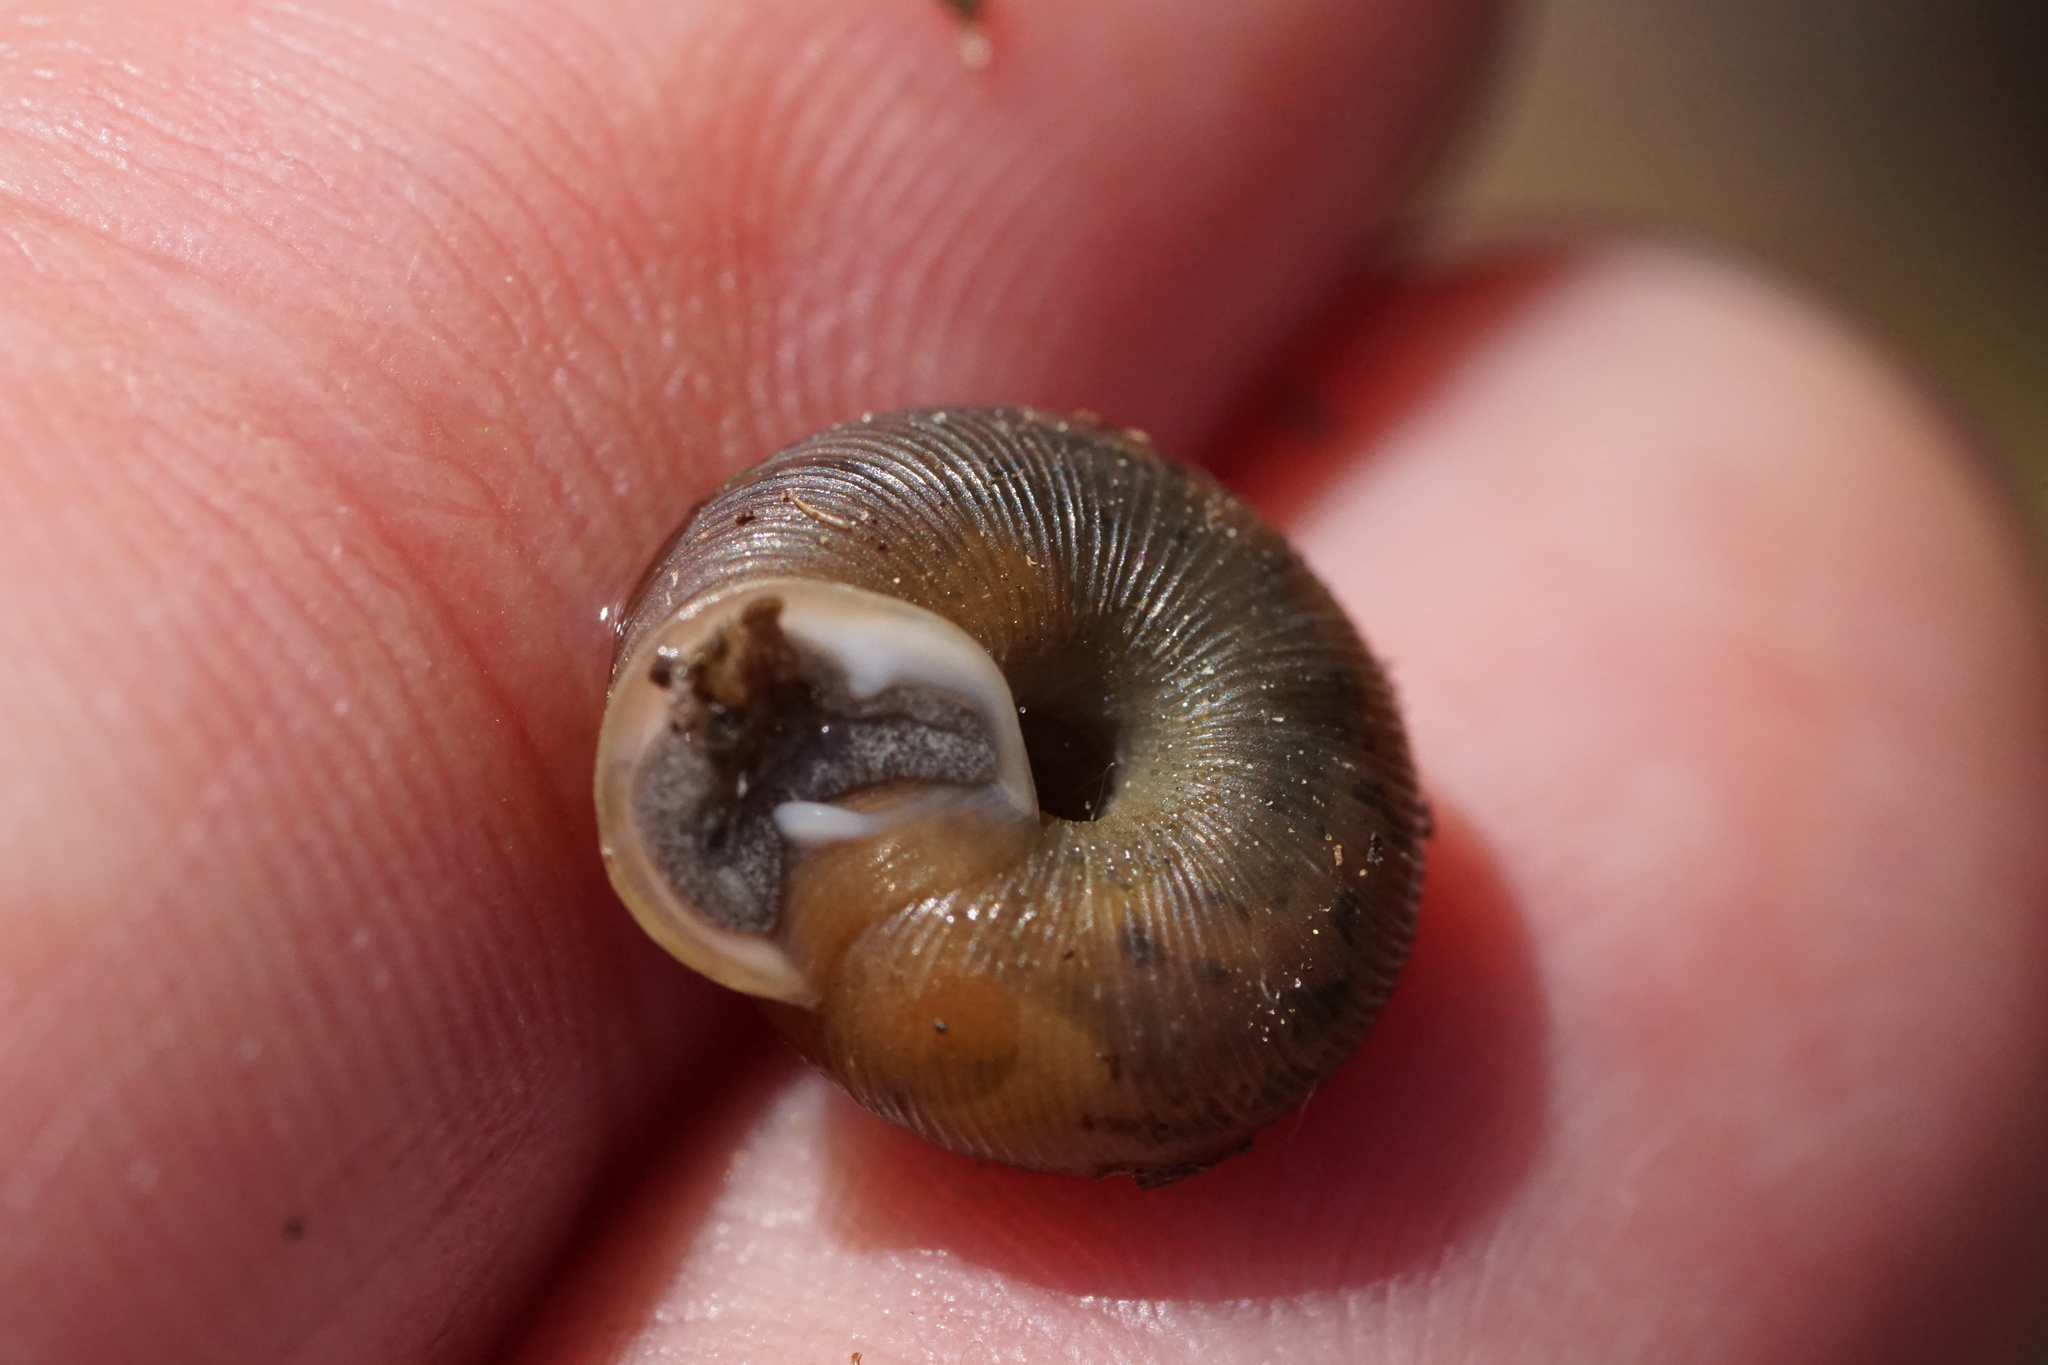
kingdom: Animalia
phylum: Mollusca
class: Gastropoda
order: Stylommatophora
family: Polygyridae
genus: Triodopsis
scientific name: Triodopsis hopetonensis
